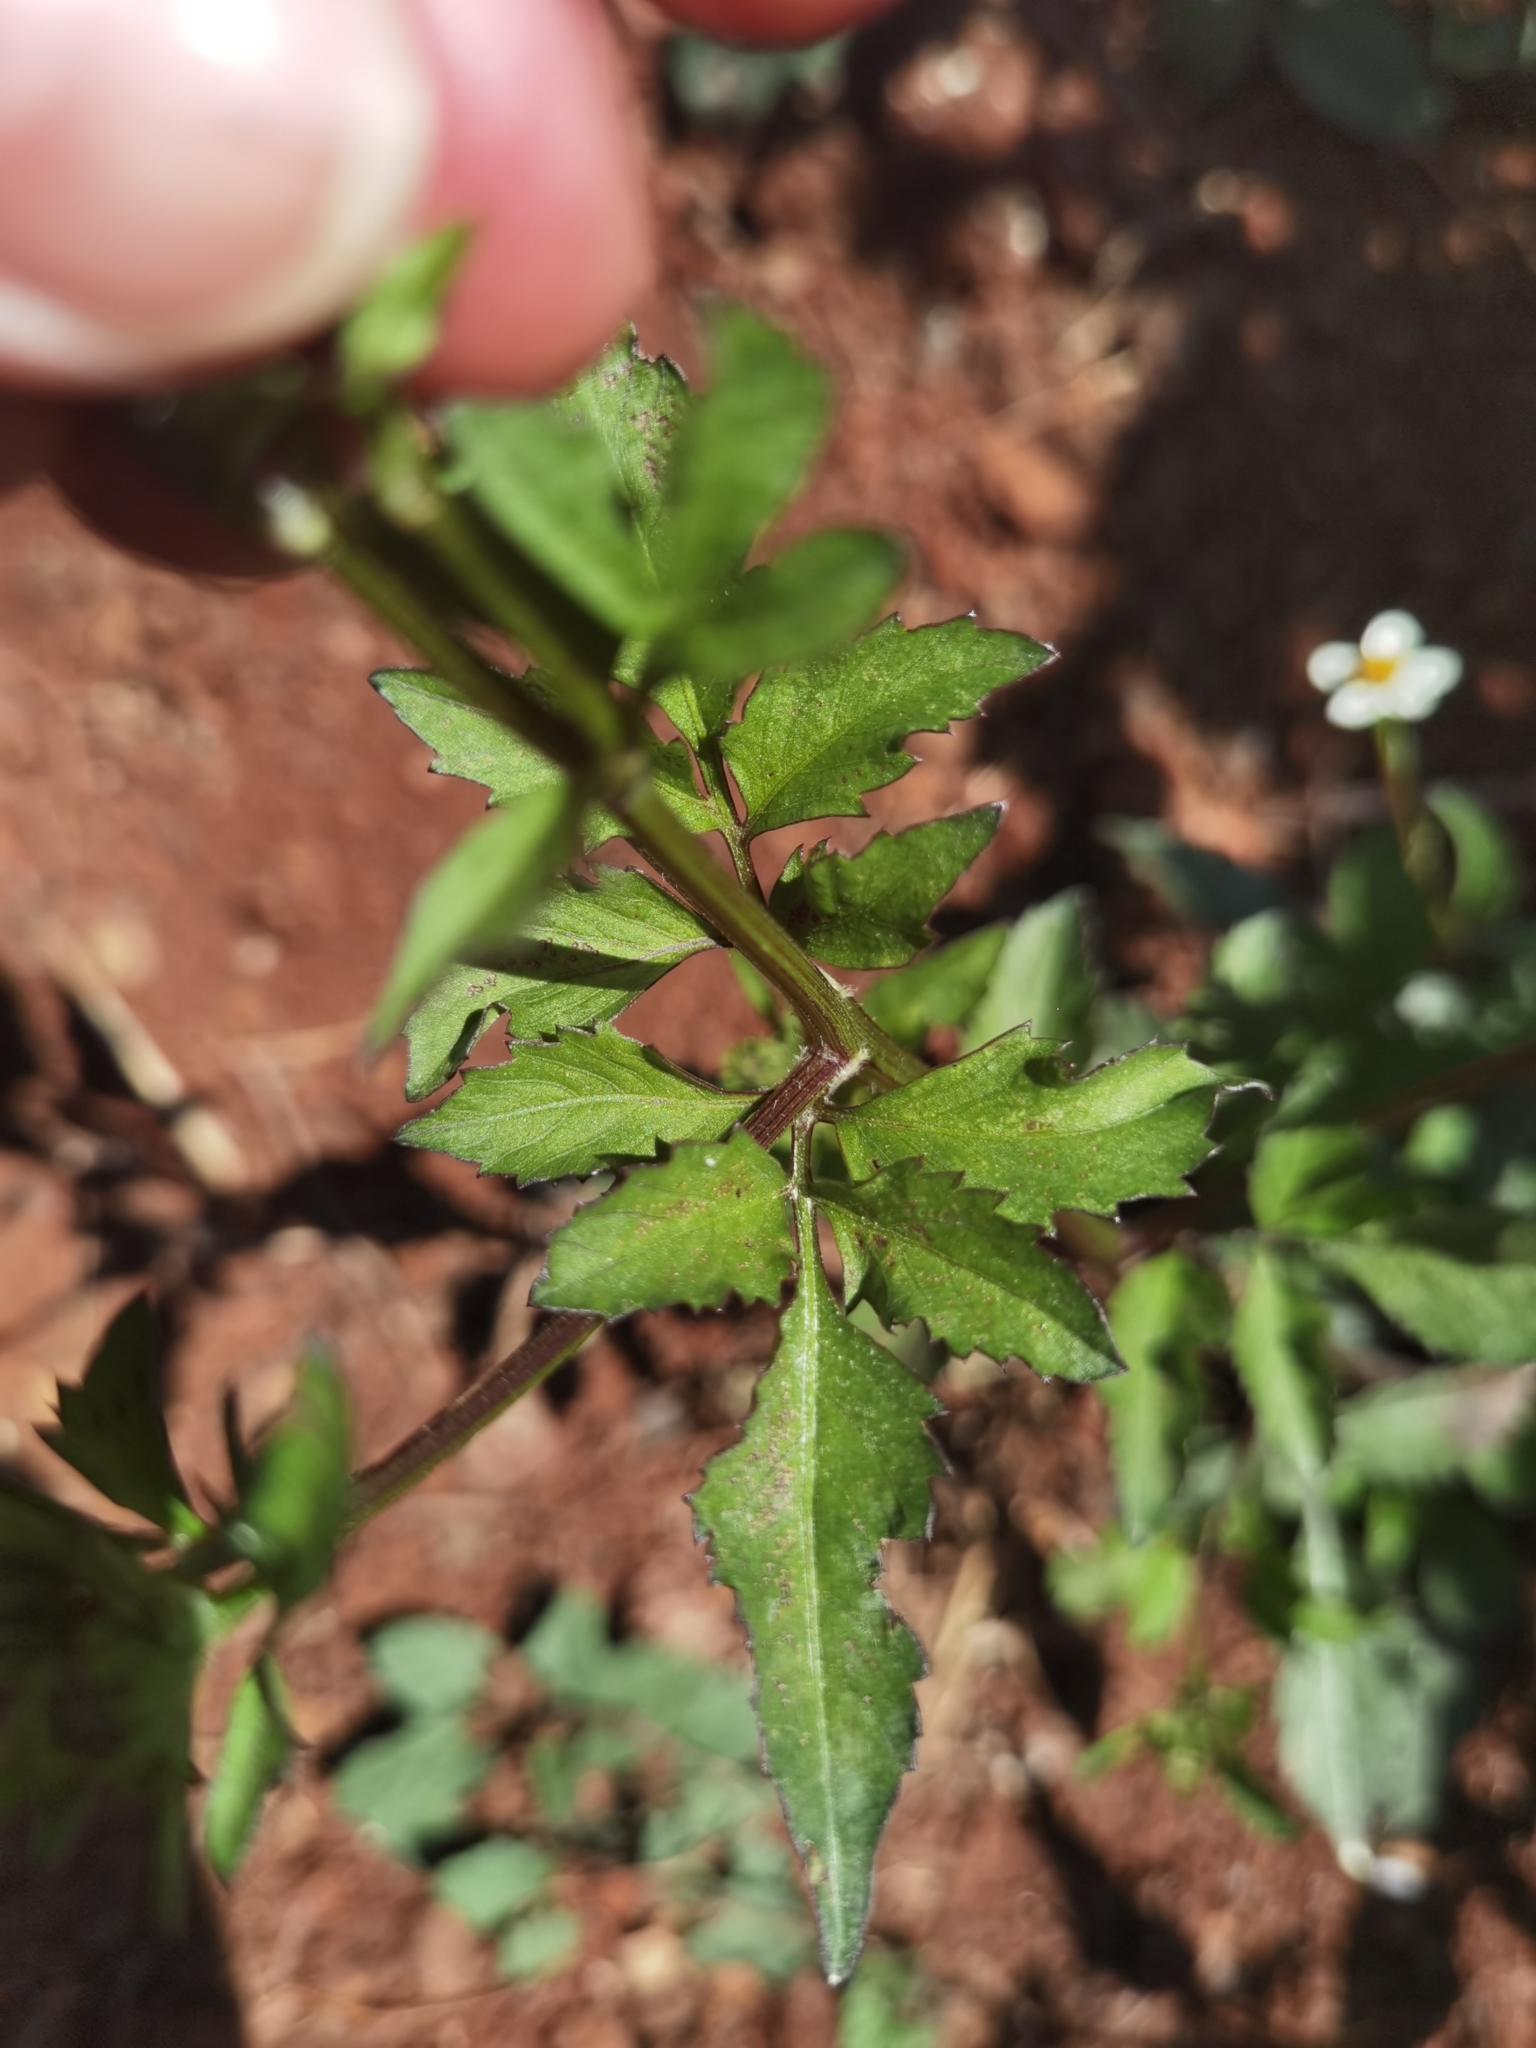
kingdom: Plantae
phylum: Tracheophyta
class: Magnoliopsida
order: Asterales
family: Asteraceae
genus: Bidens
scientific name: Bidens pilosa
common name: Black-jack
